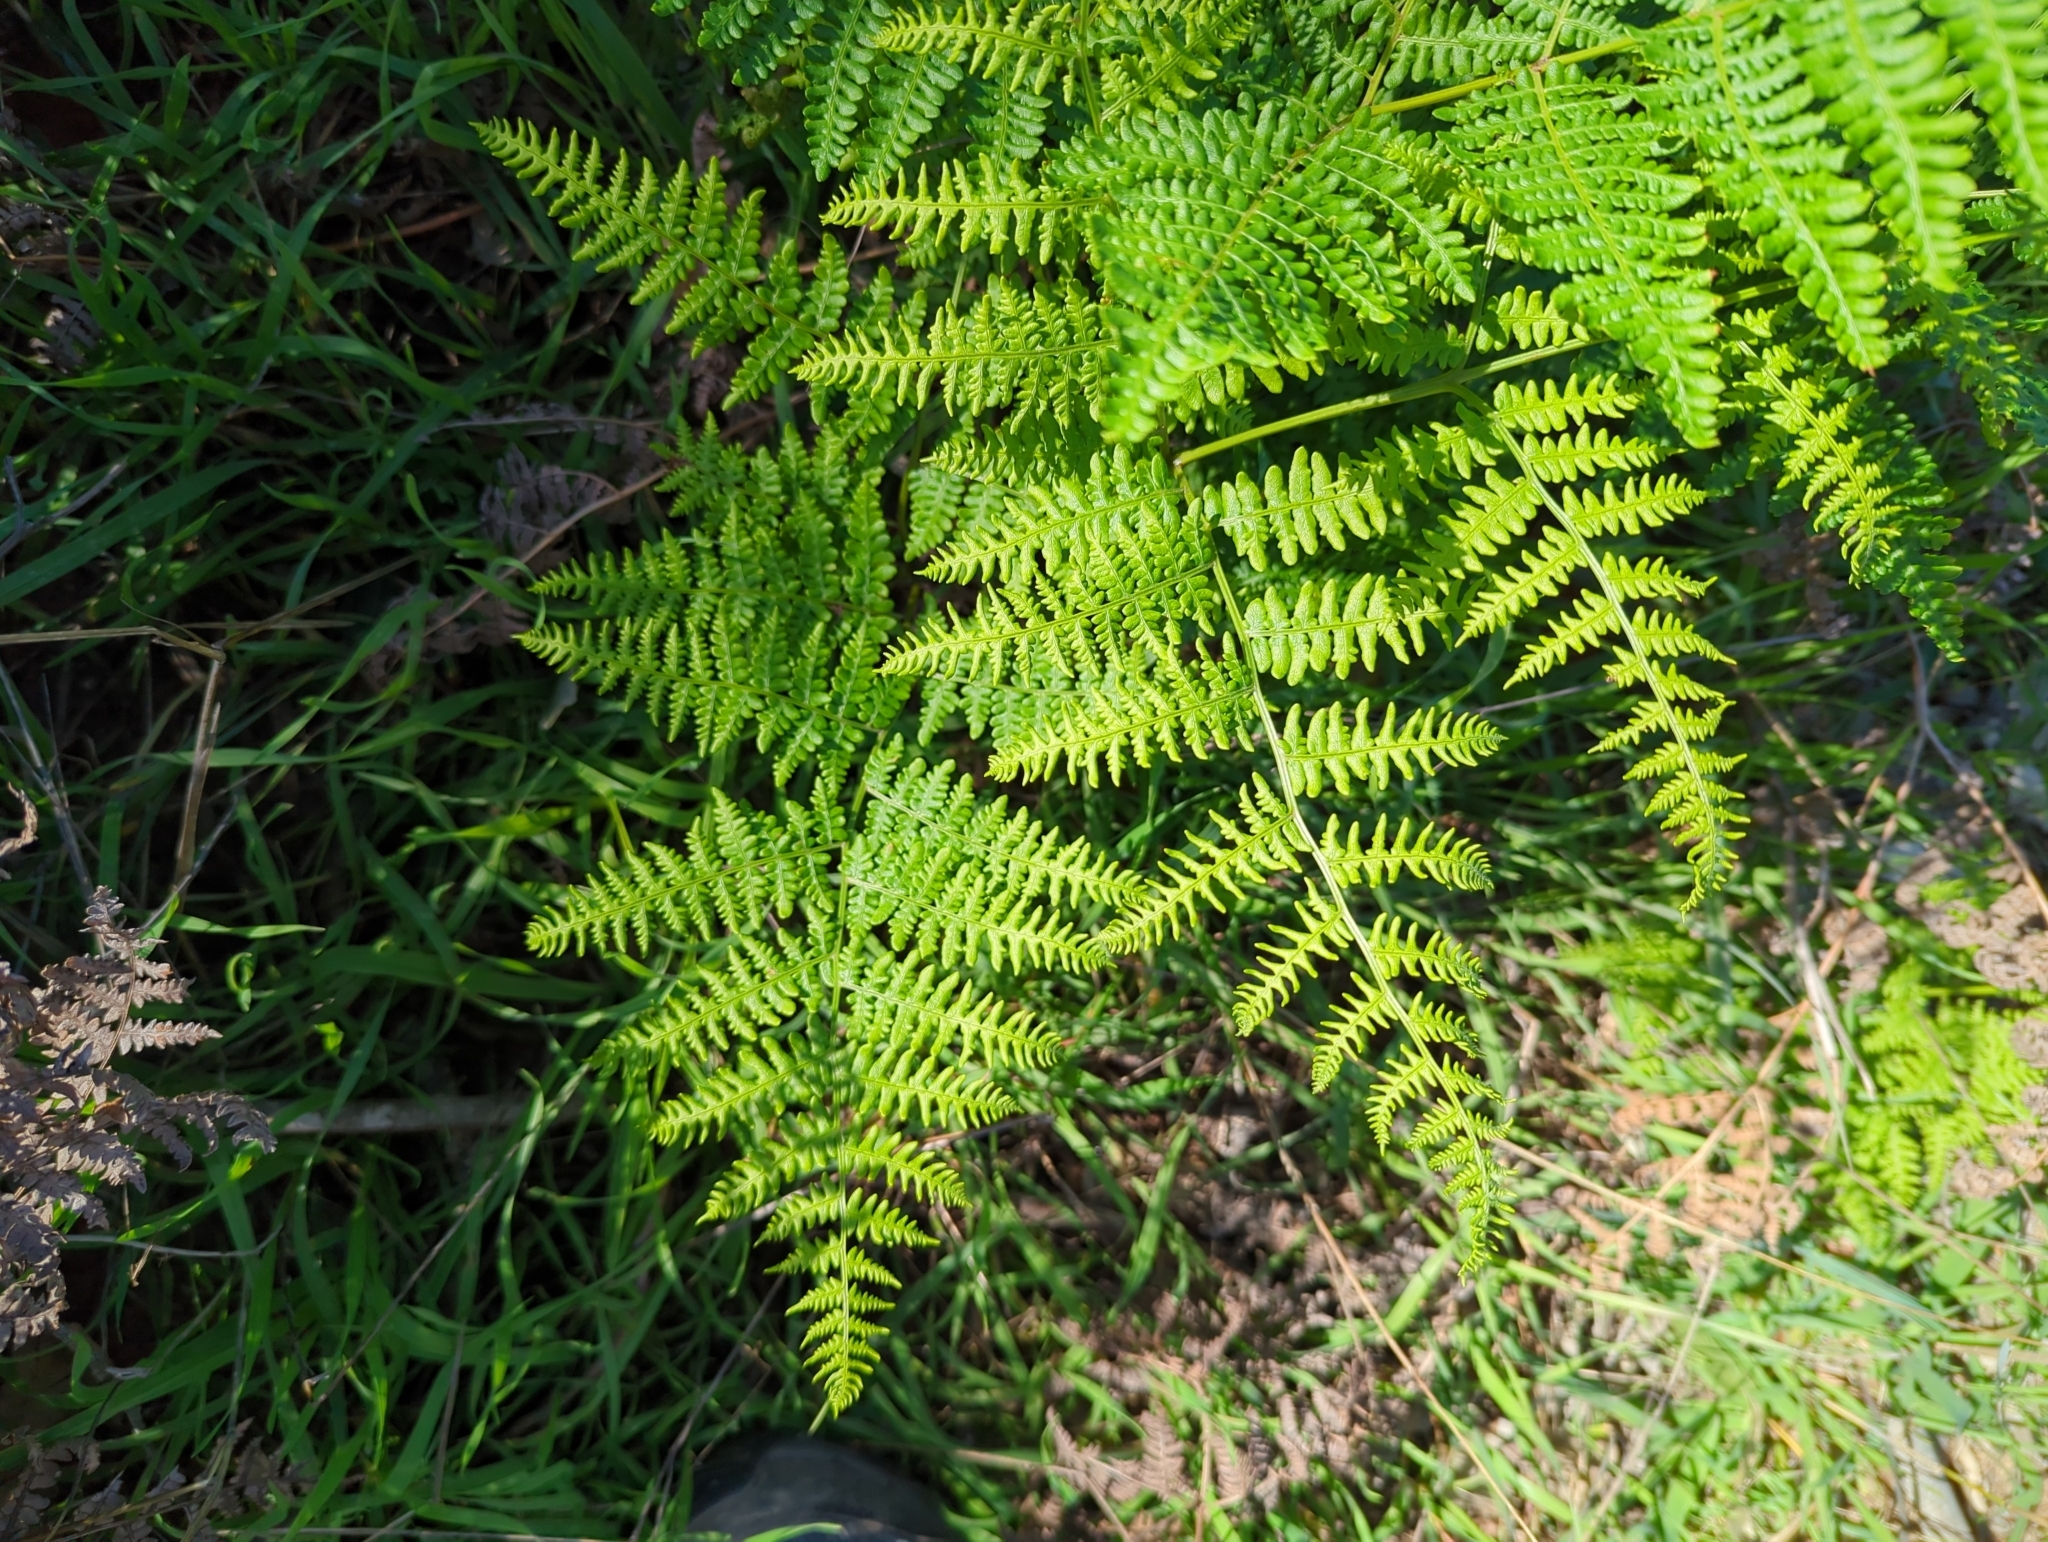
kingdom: Plantae
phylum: Tracheophyta
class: Polypodiopsida
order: Polypodiales
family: Dennstaedtiaceae
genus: Pteridium
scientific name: Pteridium aquilinum
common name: Bracken
